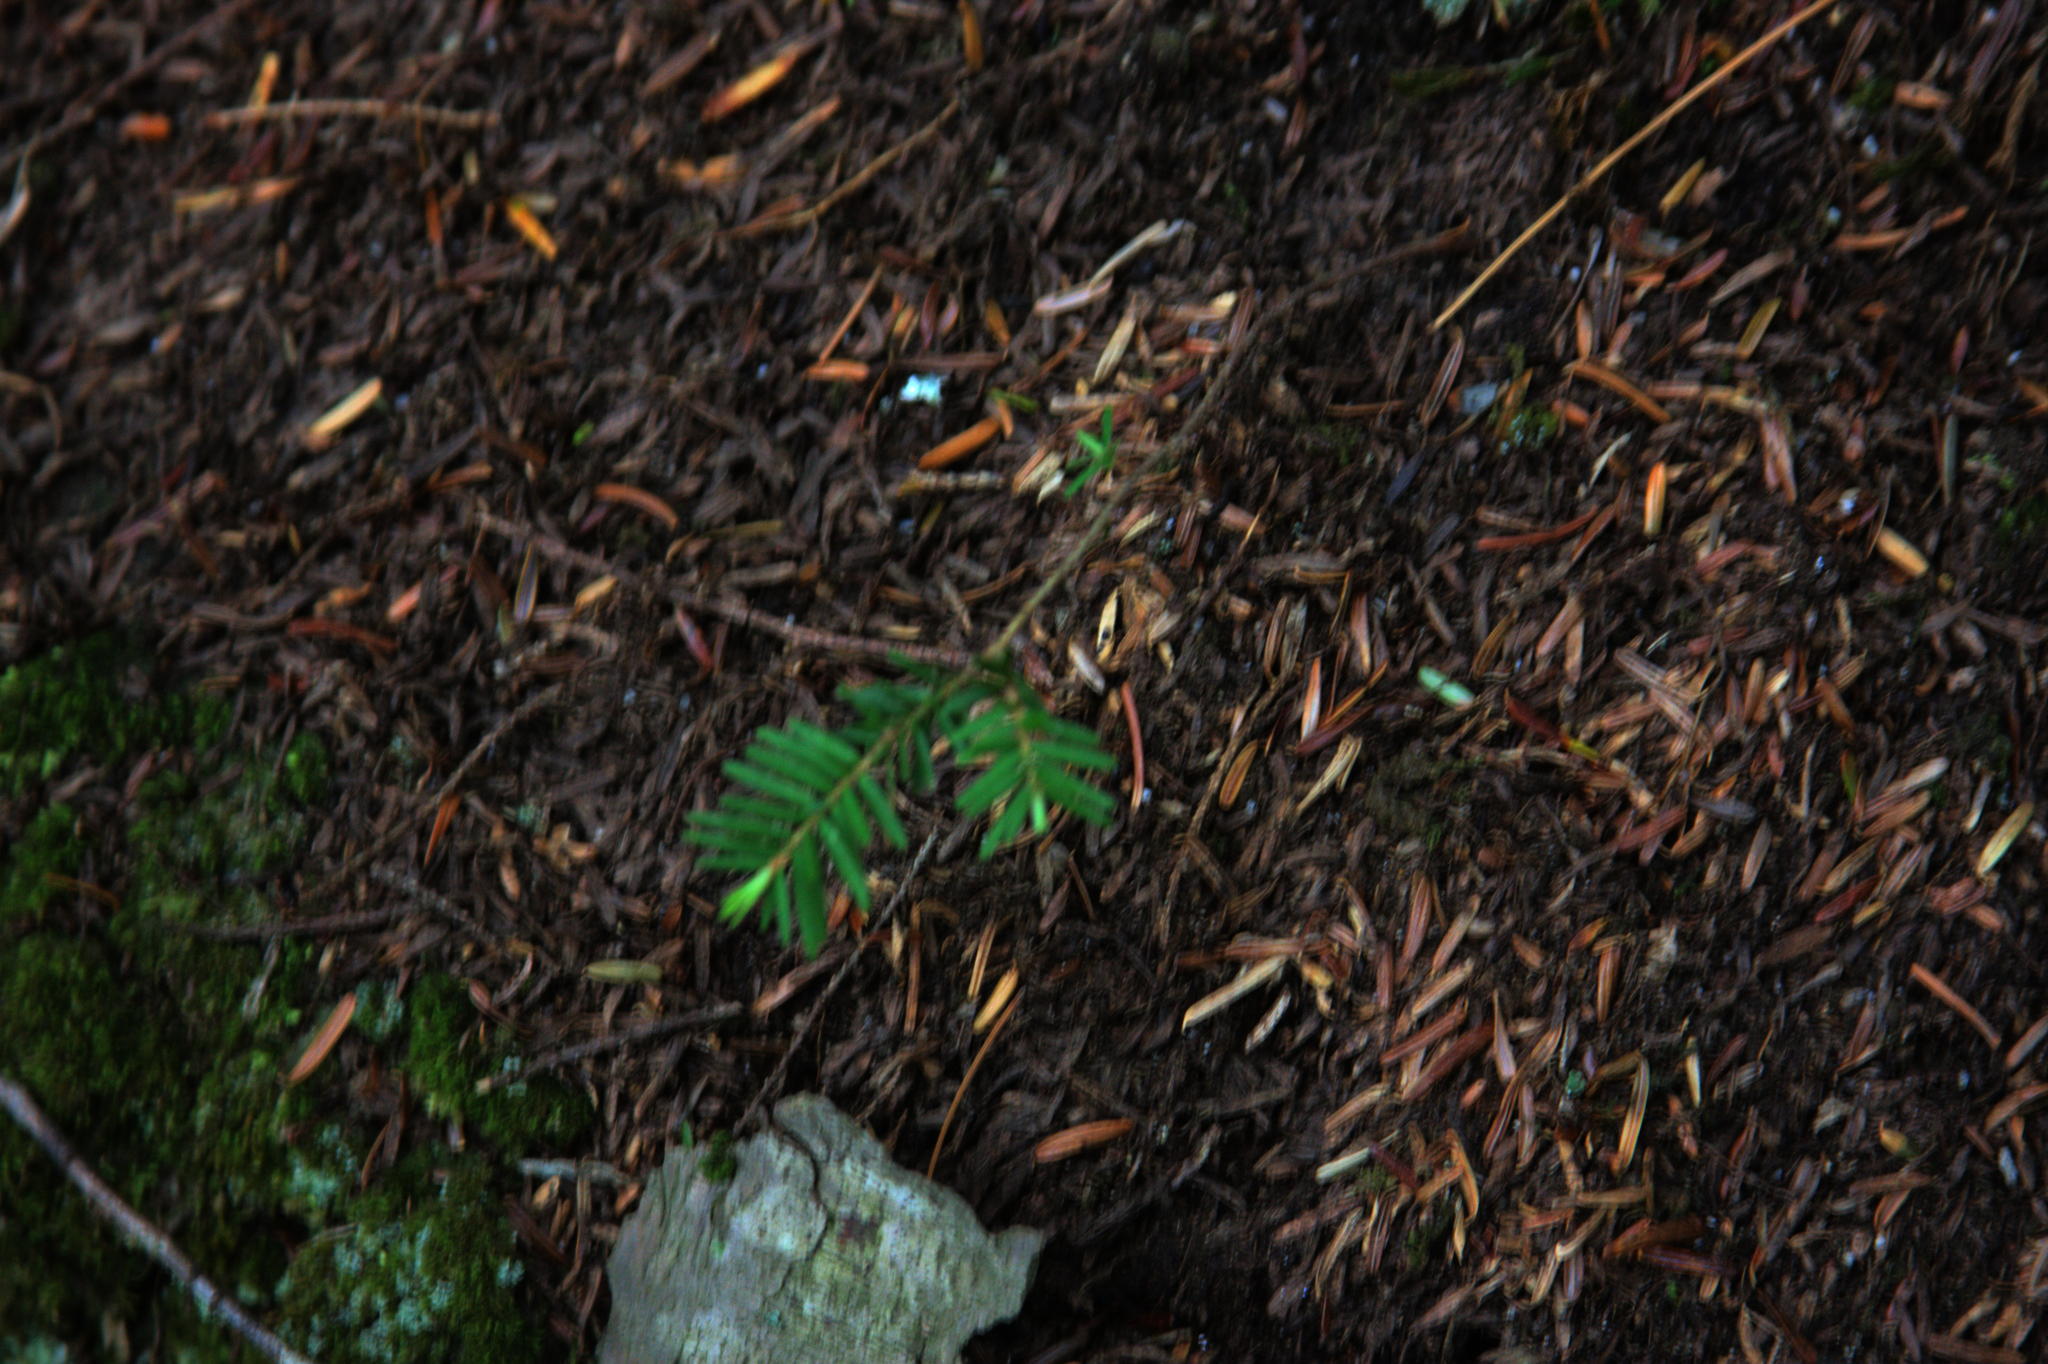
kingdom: Plantae
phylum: Tracheophyta
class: Pinopsida
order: Pinales
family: Pinaceae
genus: Tsuga
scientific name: Tsuga canadensis
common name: Eastern hemlock
